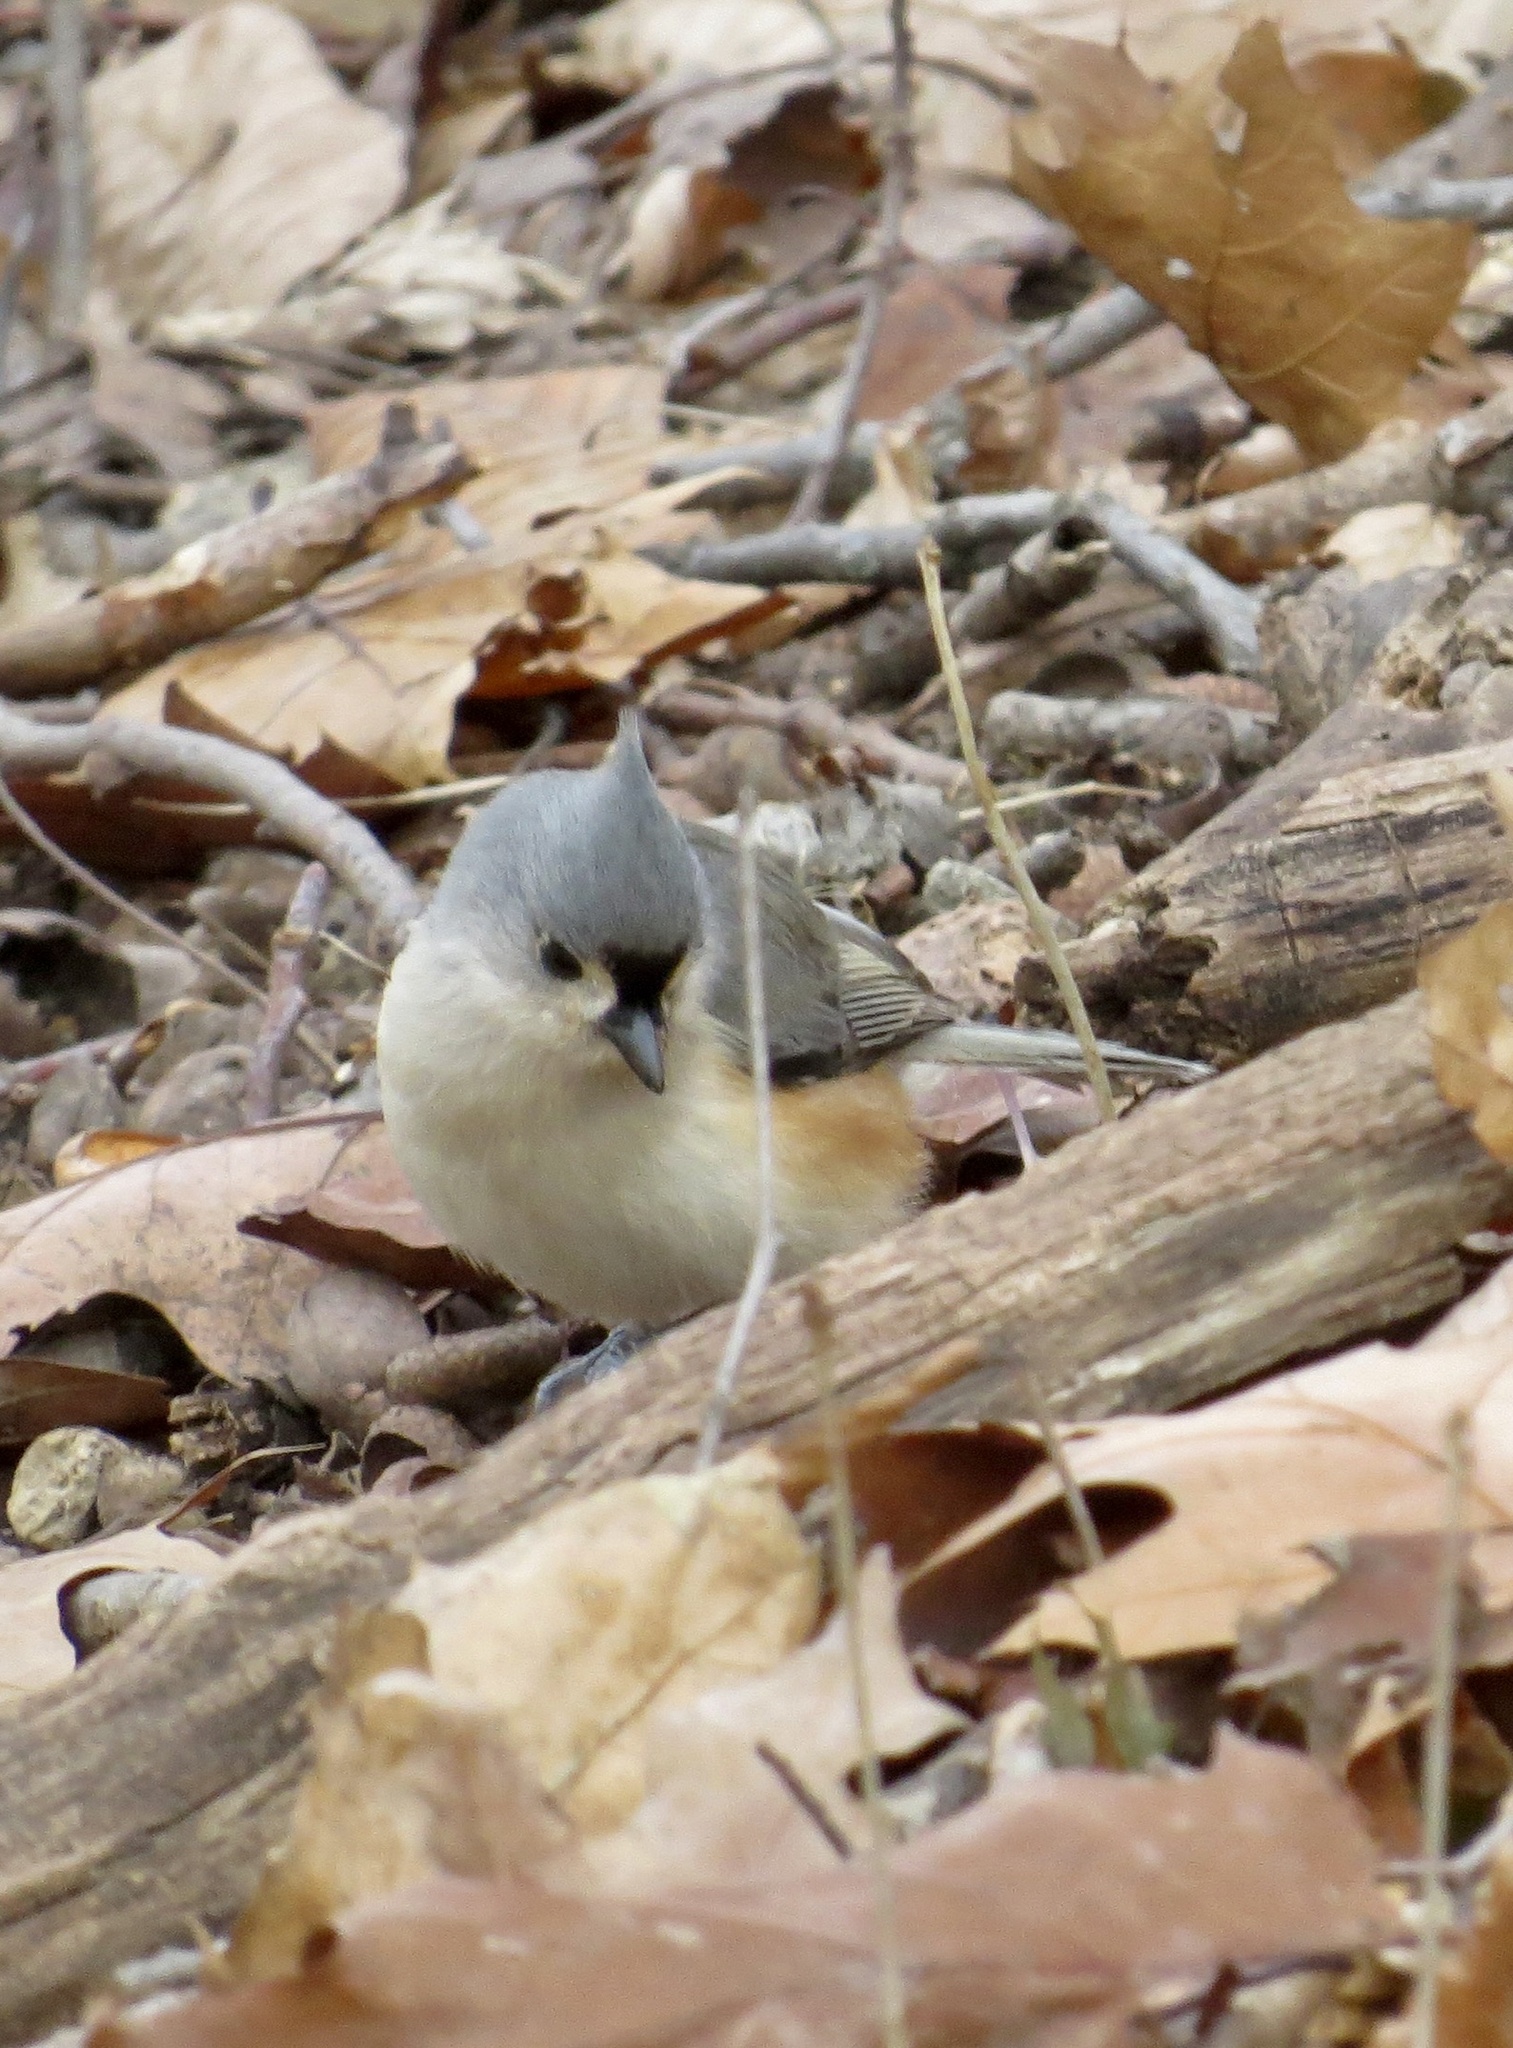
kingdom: Animalia
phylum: Chordata
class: Aves
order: Passeriformes
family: Paridae
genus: Baeolophus
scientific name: Baeolophus bicolor
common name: Tufted titmouse
